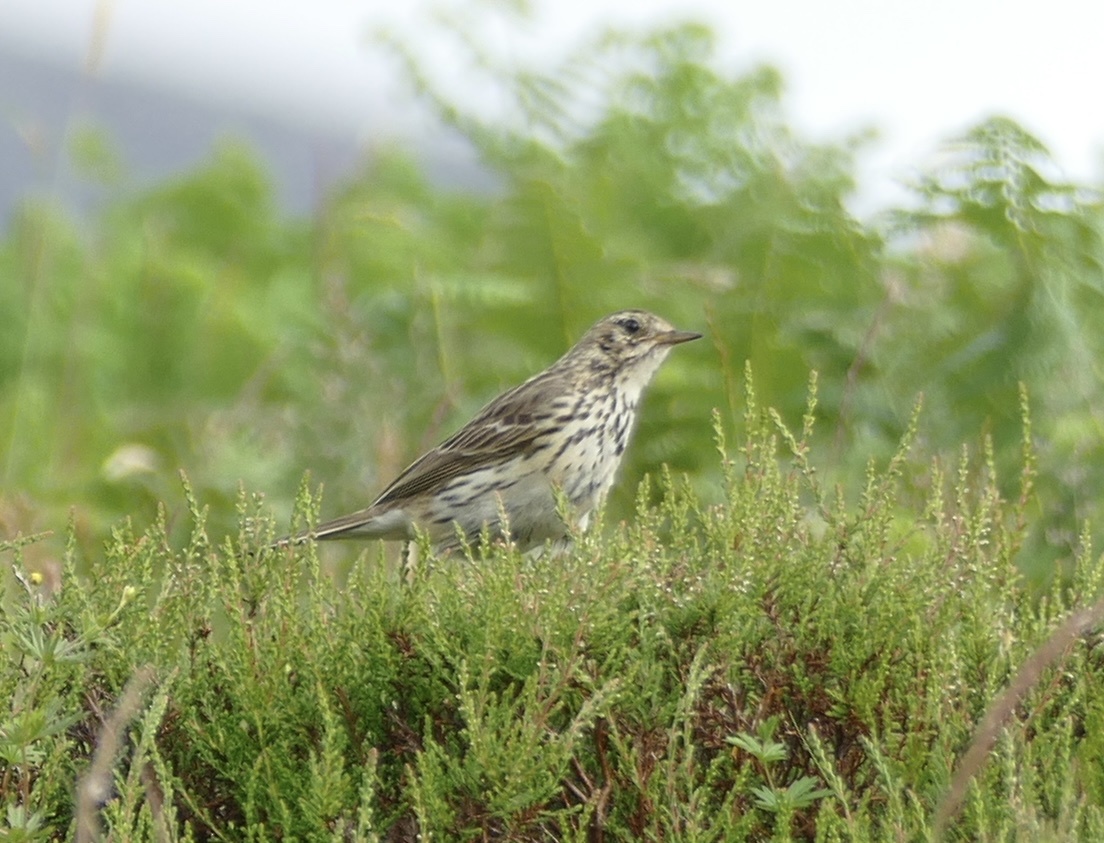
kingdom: Animalia
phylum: Chordata
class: Aves
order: Passeriformes
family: Motacillidae
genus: Anthus
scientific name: Anthus pratensis
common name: Meadow pipit
